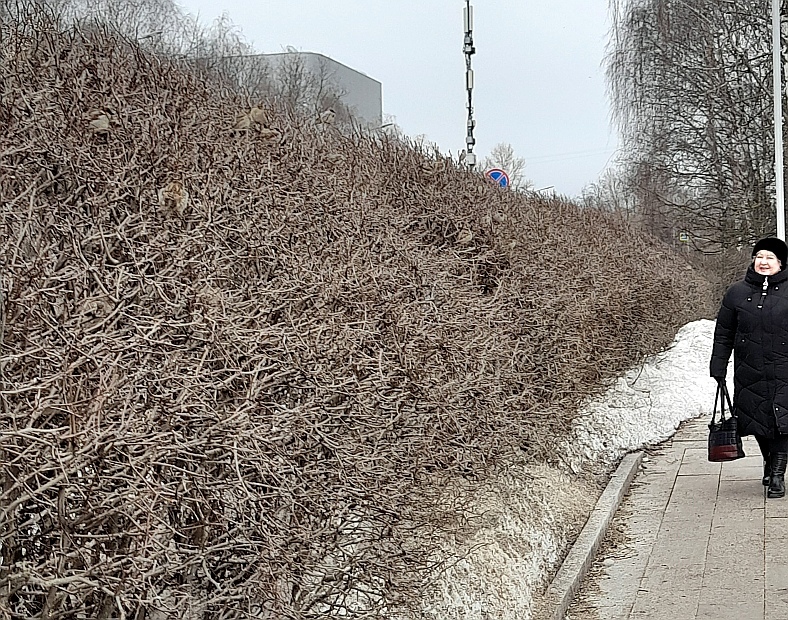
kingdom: Animalia
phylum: Chordata
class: Aves
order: Passeriformes
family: Passeridae
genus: Passer
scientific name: Passer domesticus
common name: House sparrow
